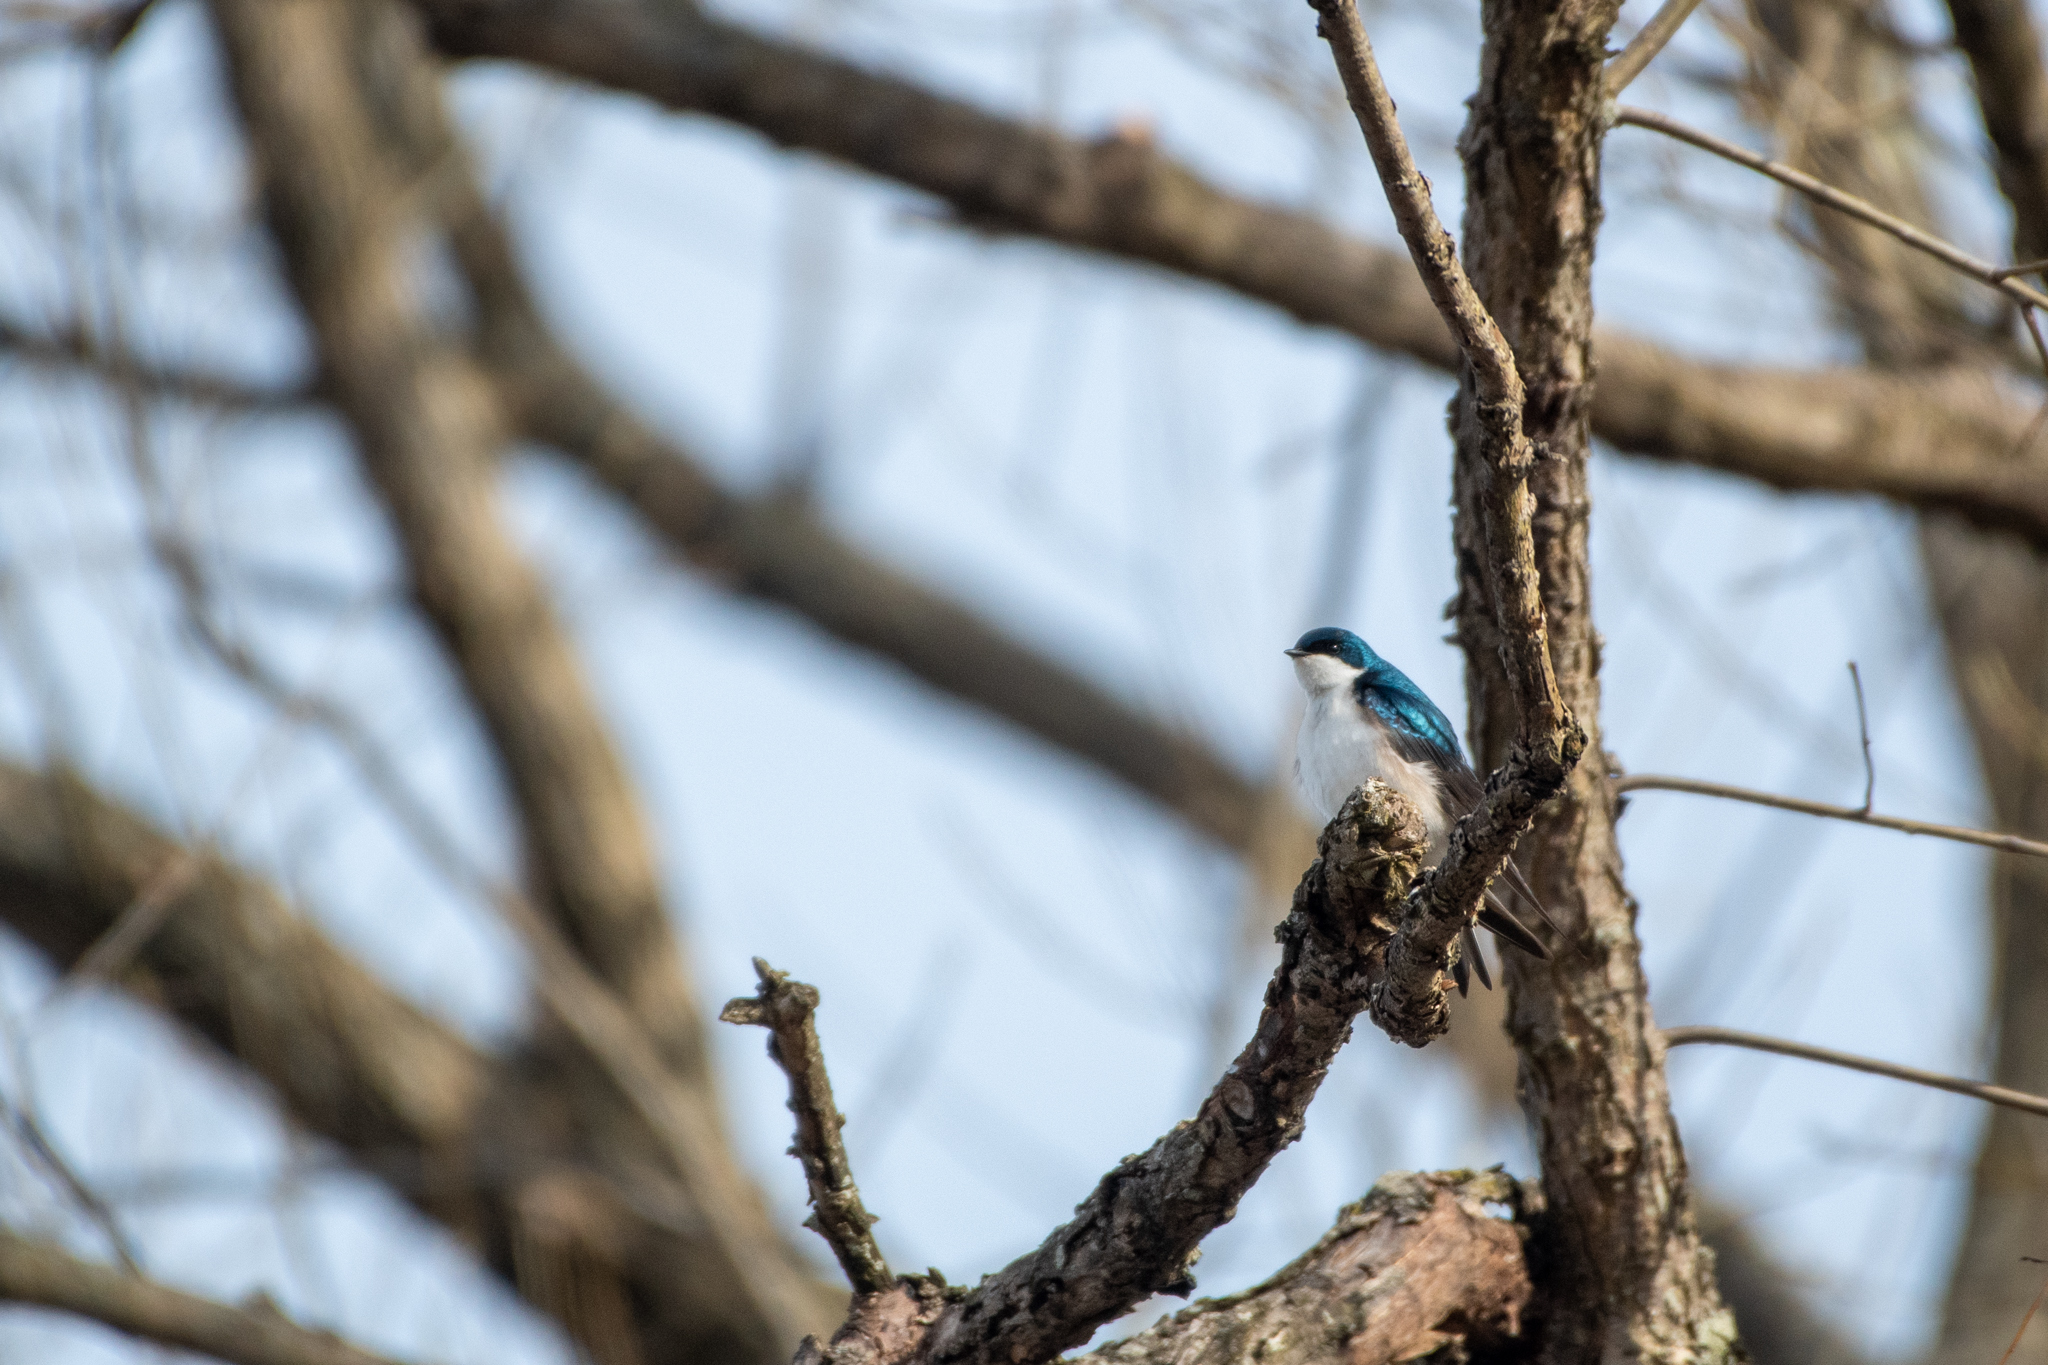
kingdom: Animalia
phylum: Chordata
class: Aves
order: Passeriformes
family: Hirundinidae
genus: Tachycineta
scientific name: Tachycineta bicolor
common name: Tree swallow
